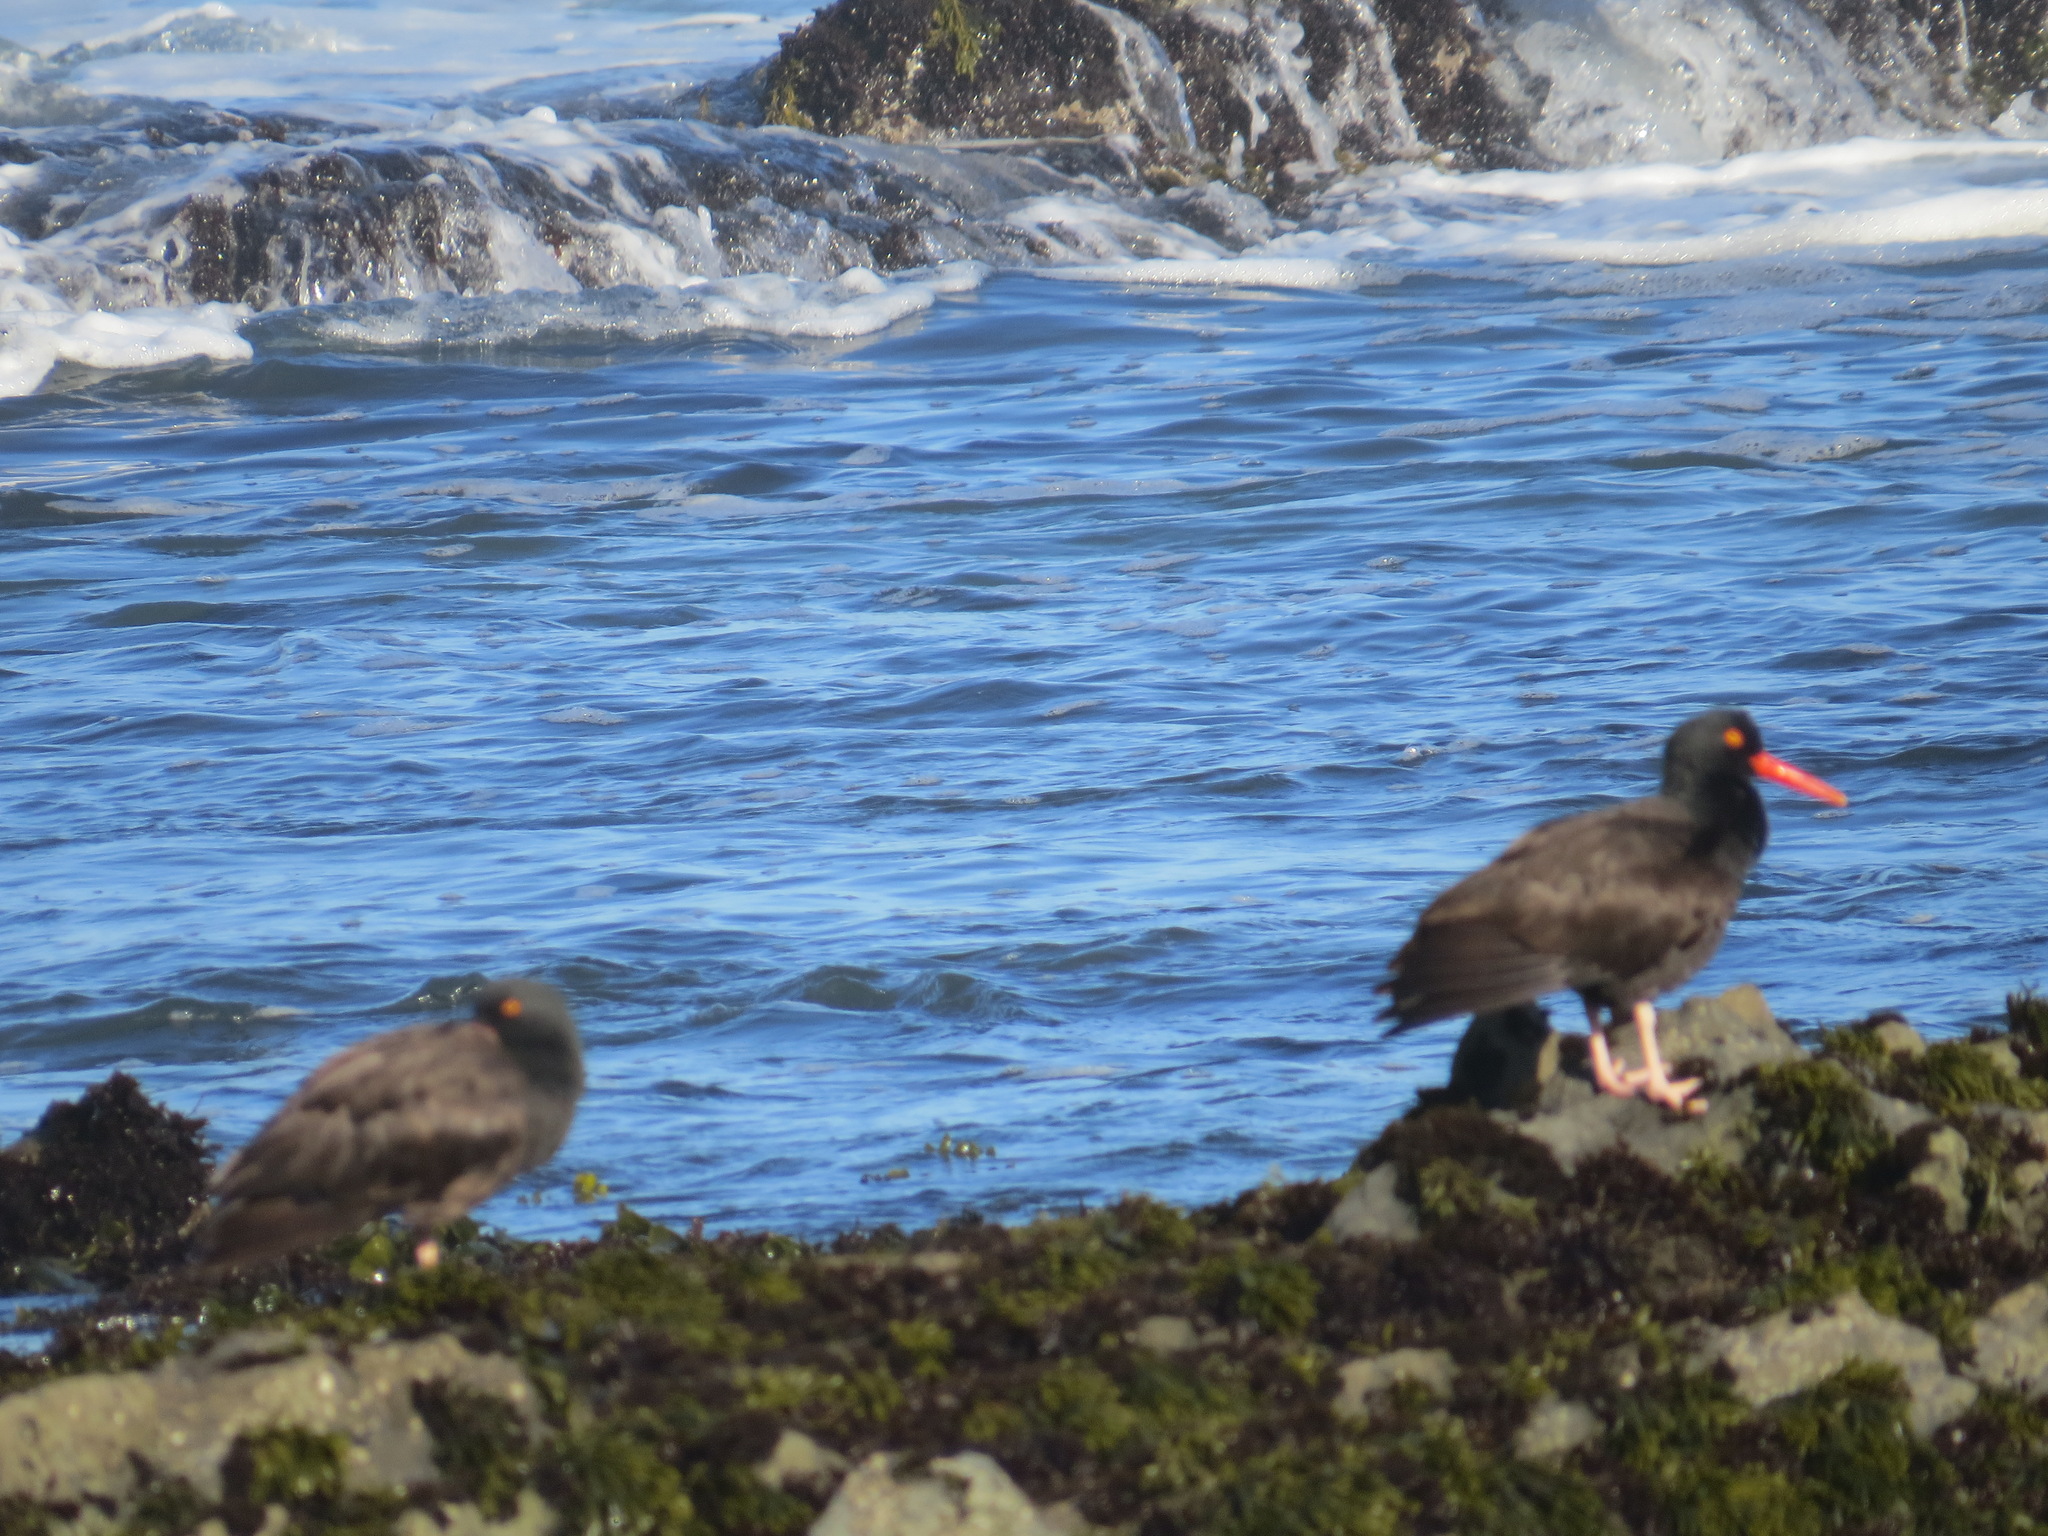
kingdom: Animalia
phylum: Chordata
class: Aves
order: Charadriiformes
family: Haematopodidae
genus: Haematopus
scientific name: Haematopus bachmani
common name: Black oystercatcher
